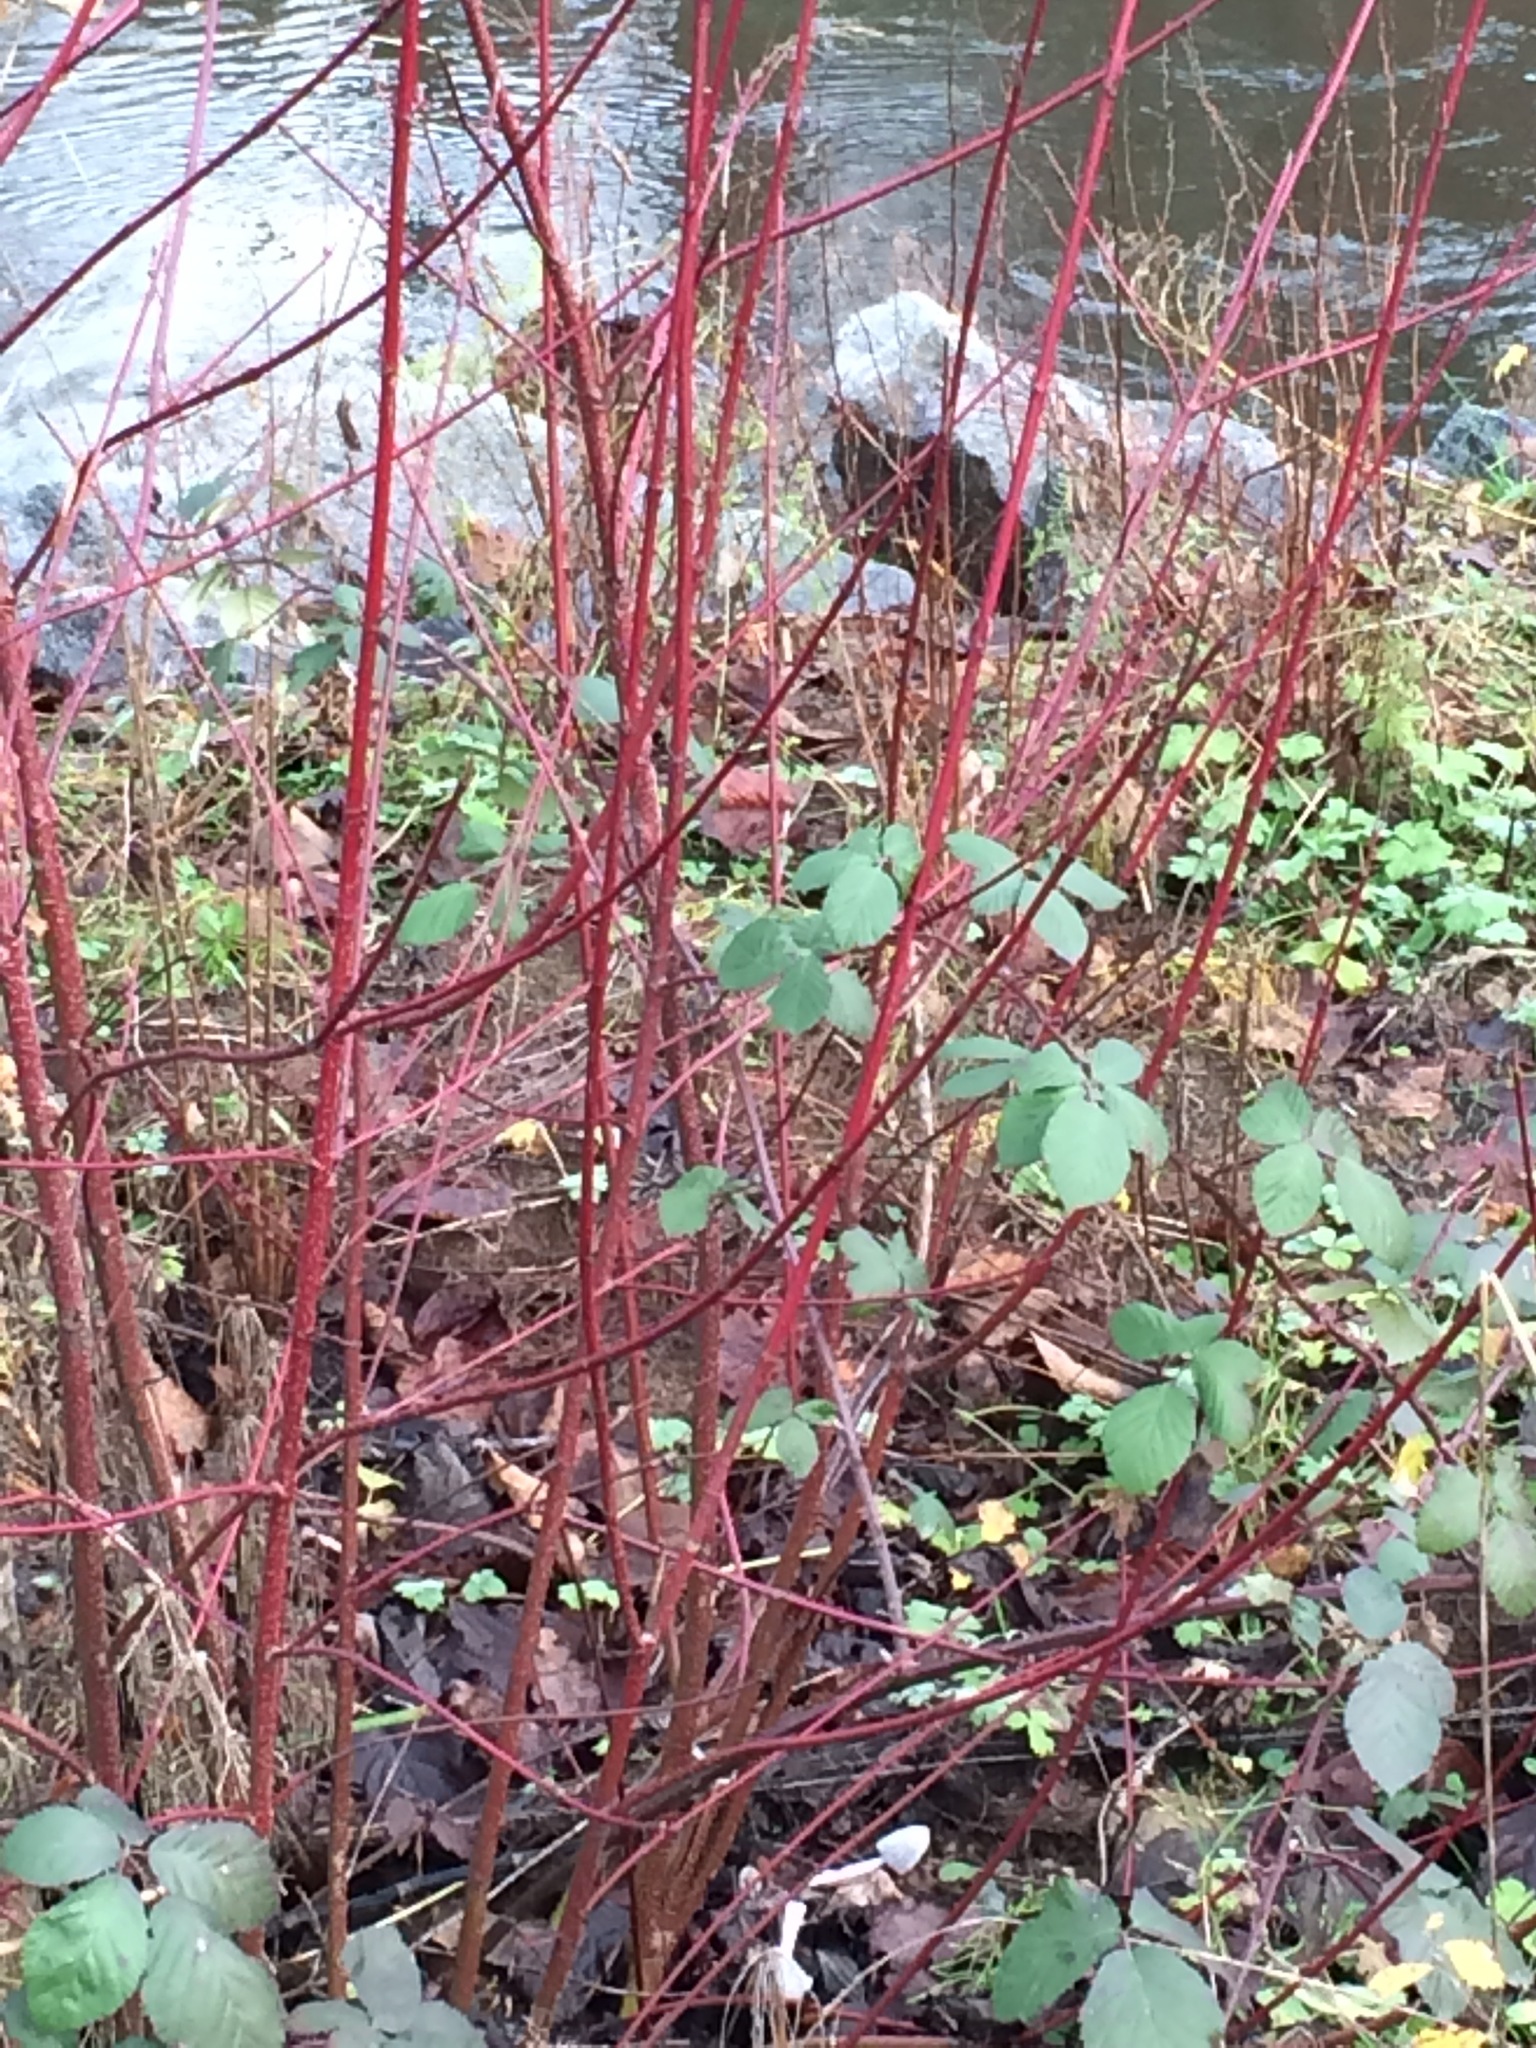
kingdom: Plantae
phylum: Tracheophyta
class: Magnoliopsida
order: Cornales
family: Cornaceae
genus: Cornus
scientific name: Cornus sericea
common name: Red-osier dogwood
